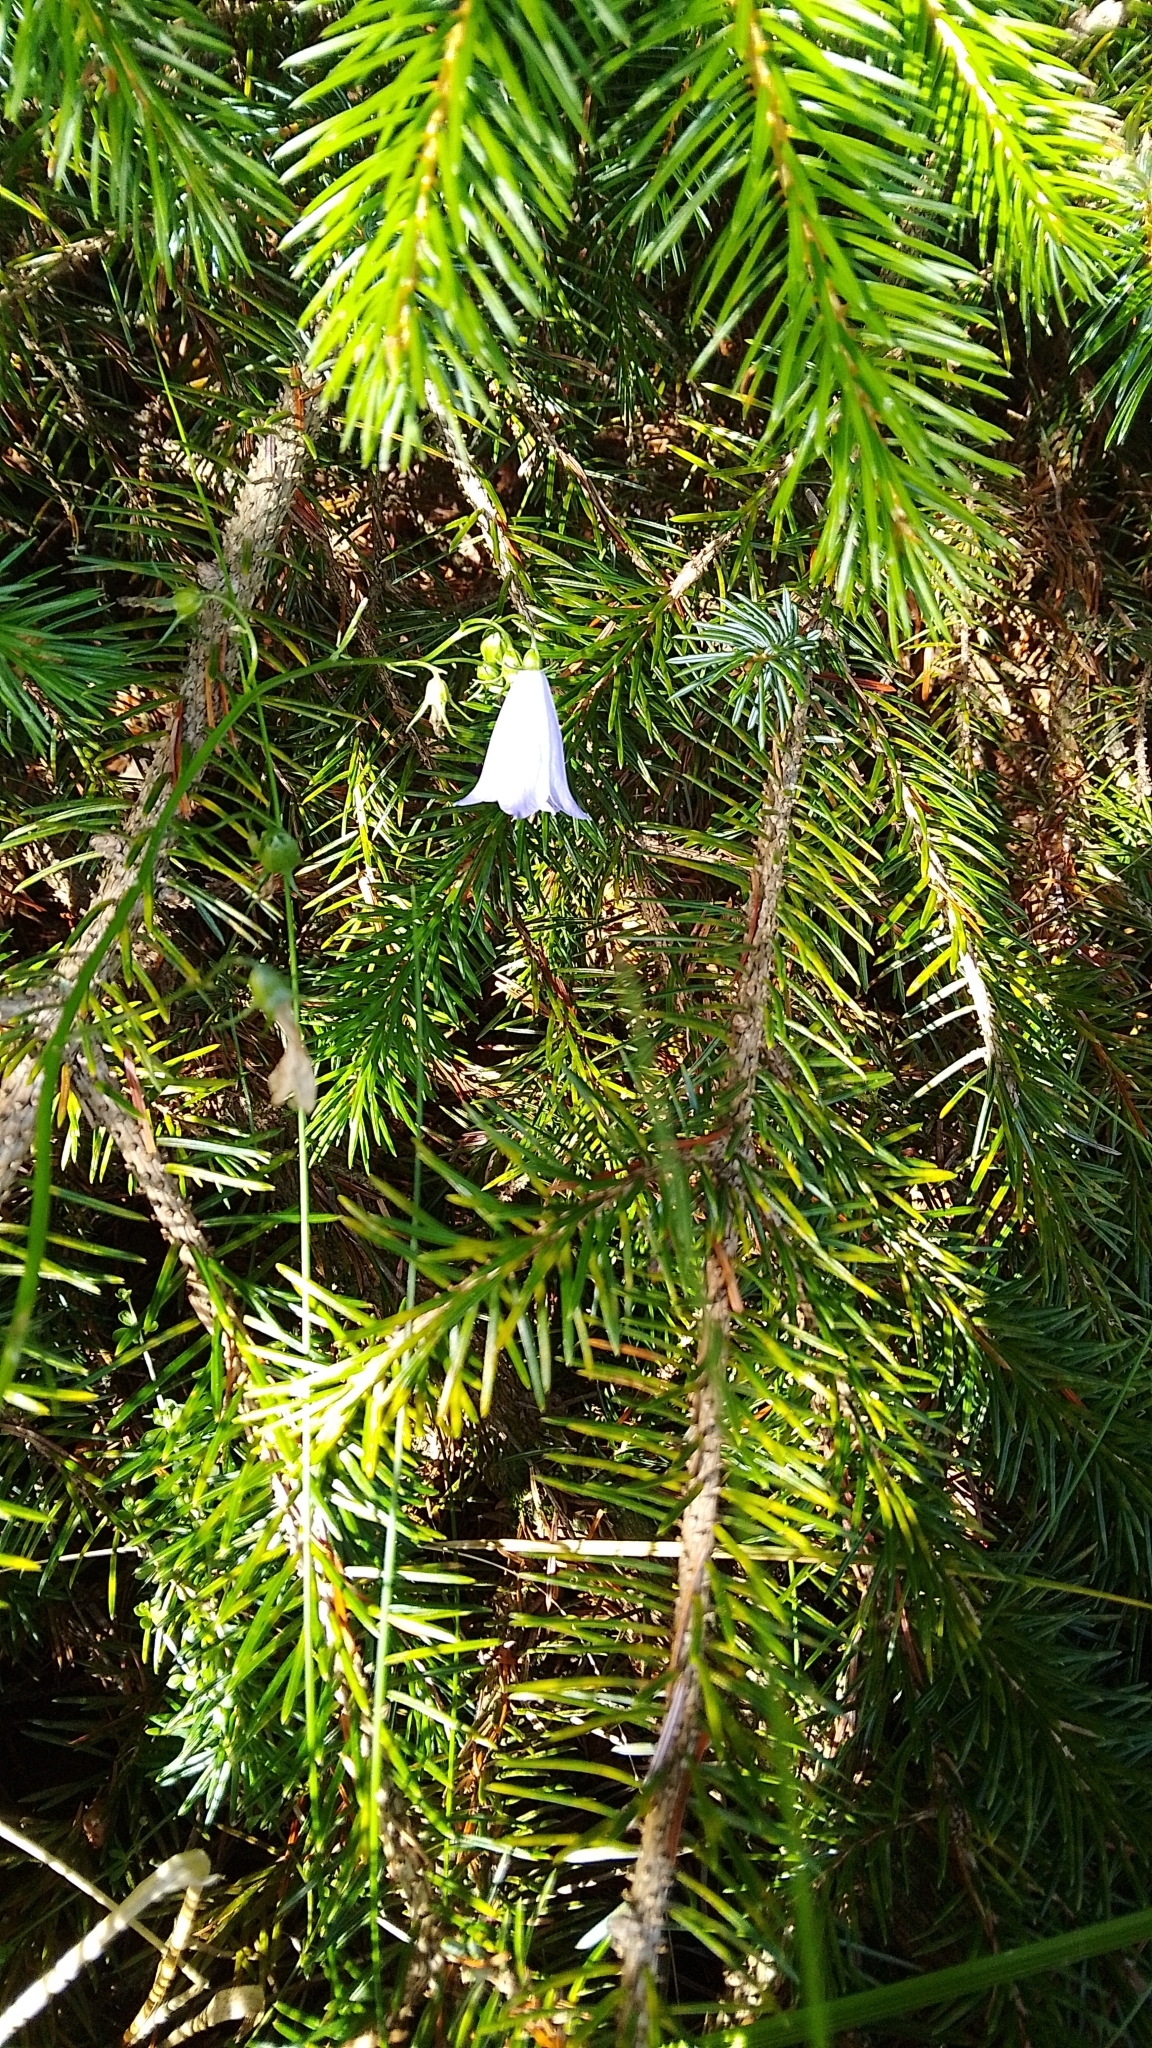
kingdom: Plantae
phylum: Tracheophyta
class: Magnoliopsida
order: Asterales
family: Campanulaceae
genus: Campanula
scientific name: Campanula rotundifolia
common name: Harebell
